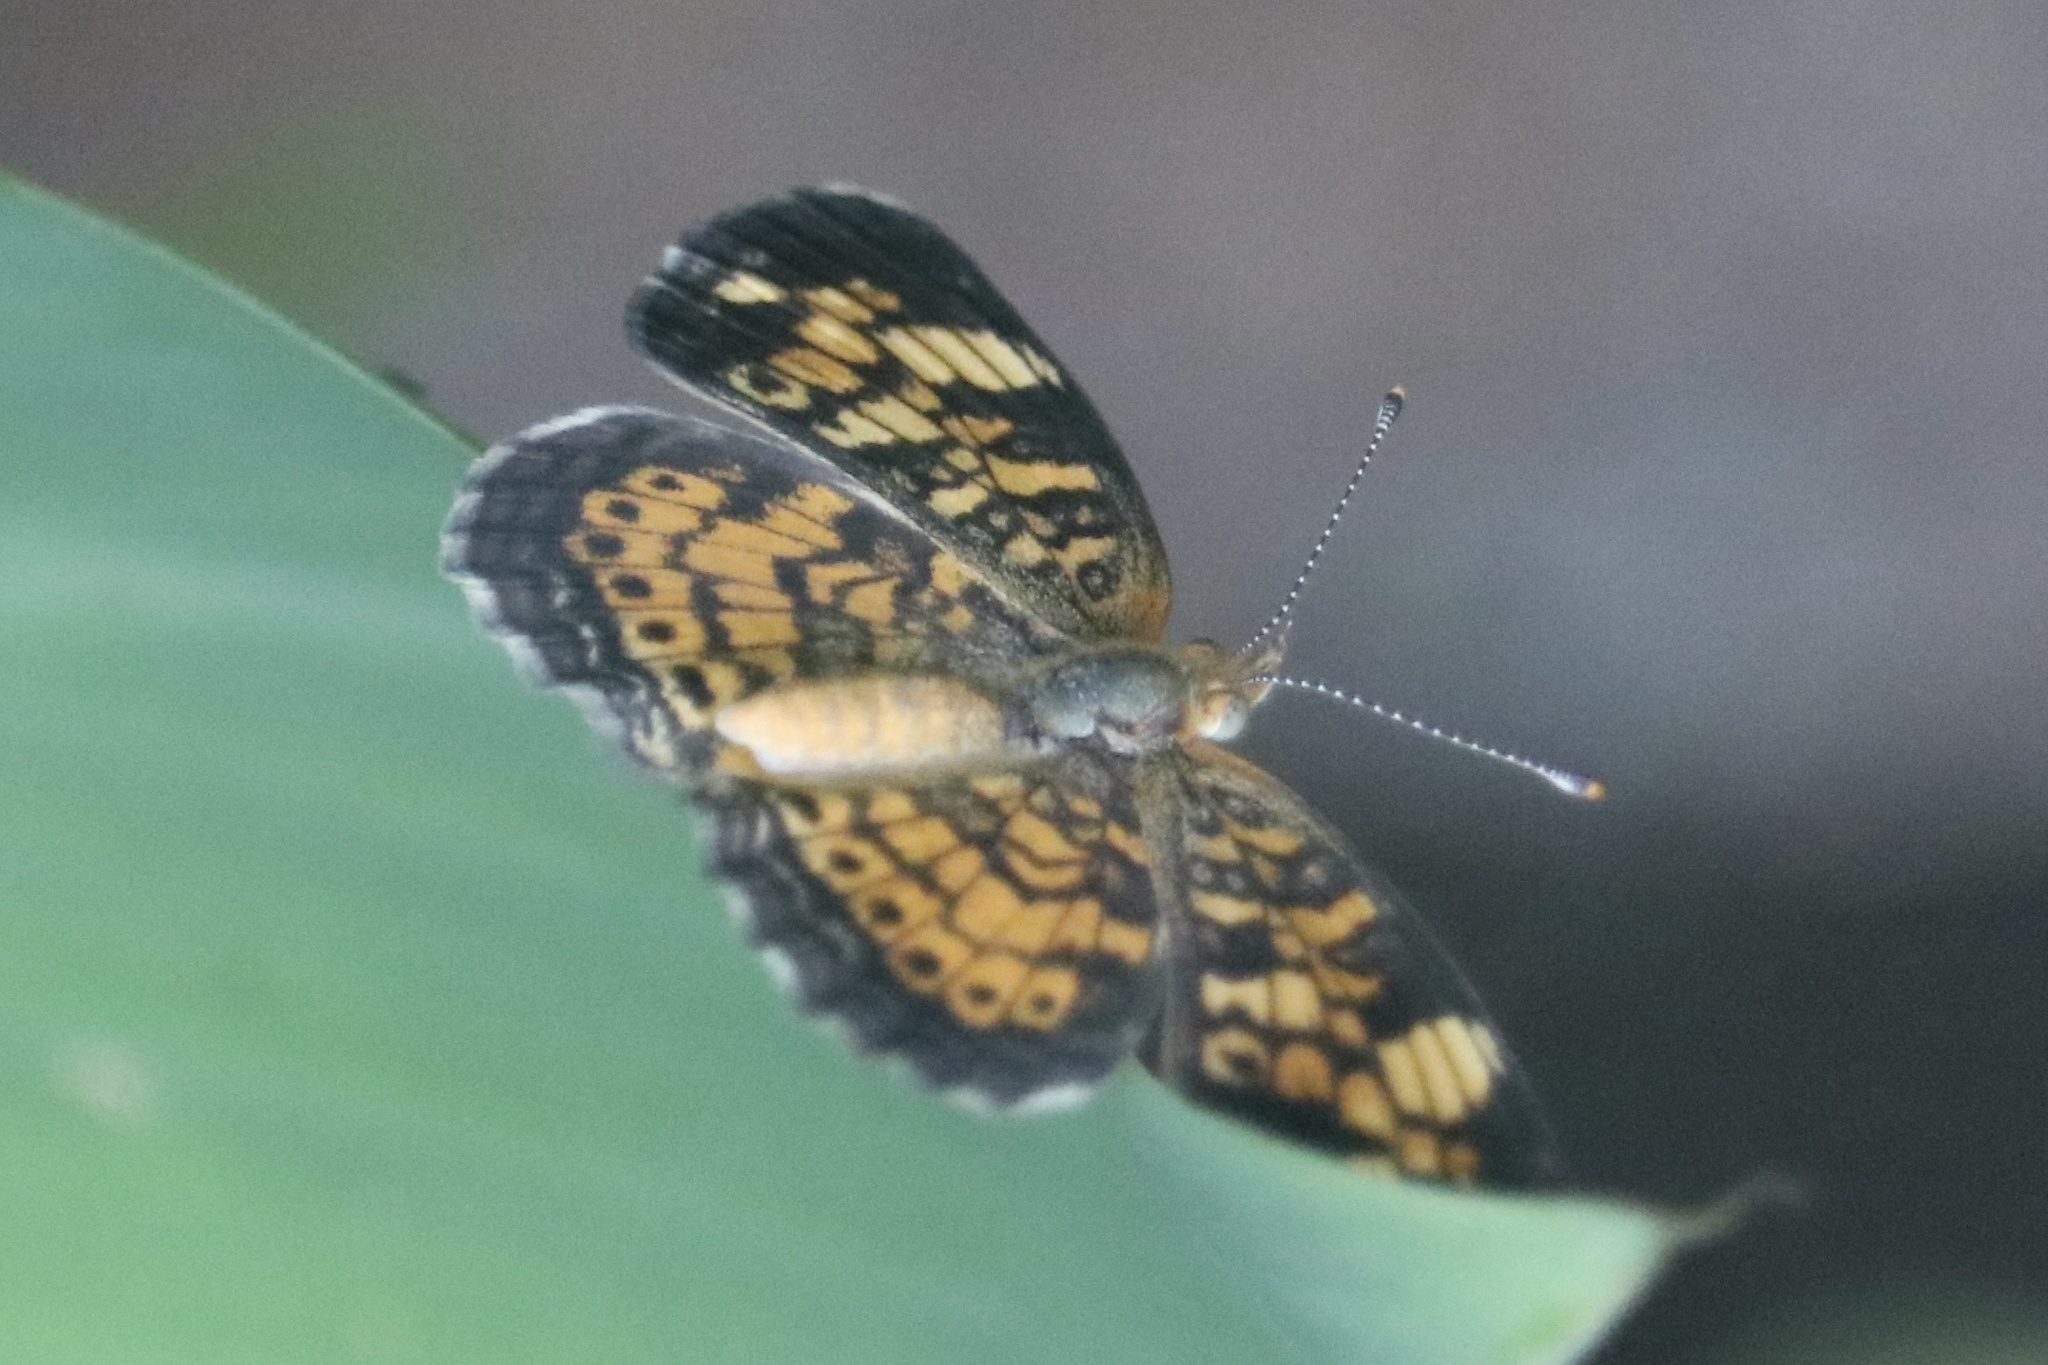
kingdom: Animalia
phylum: Arthropoda
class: Insecta
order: Lepidoptera
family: Nymphalidae
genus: Phyciodes
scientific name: Phyciodes tharos
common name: Pearl crescent
